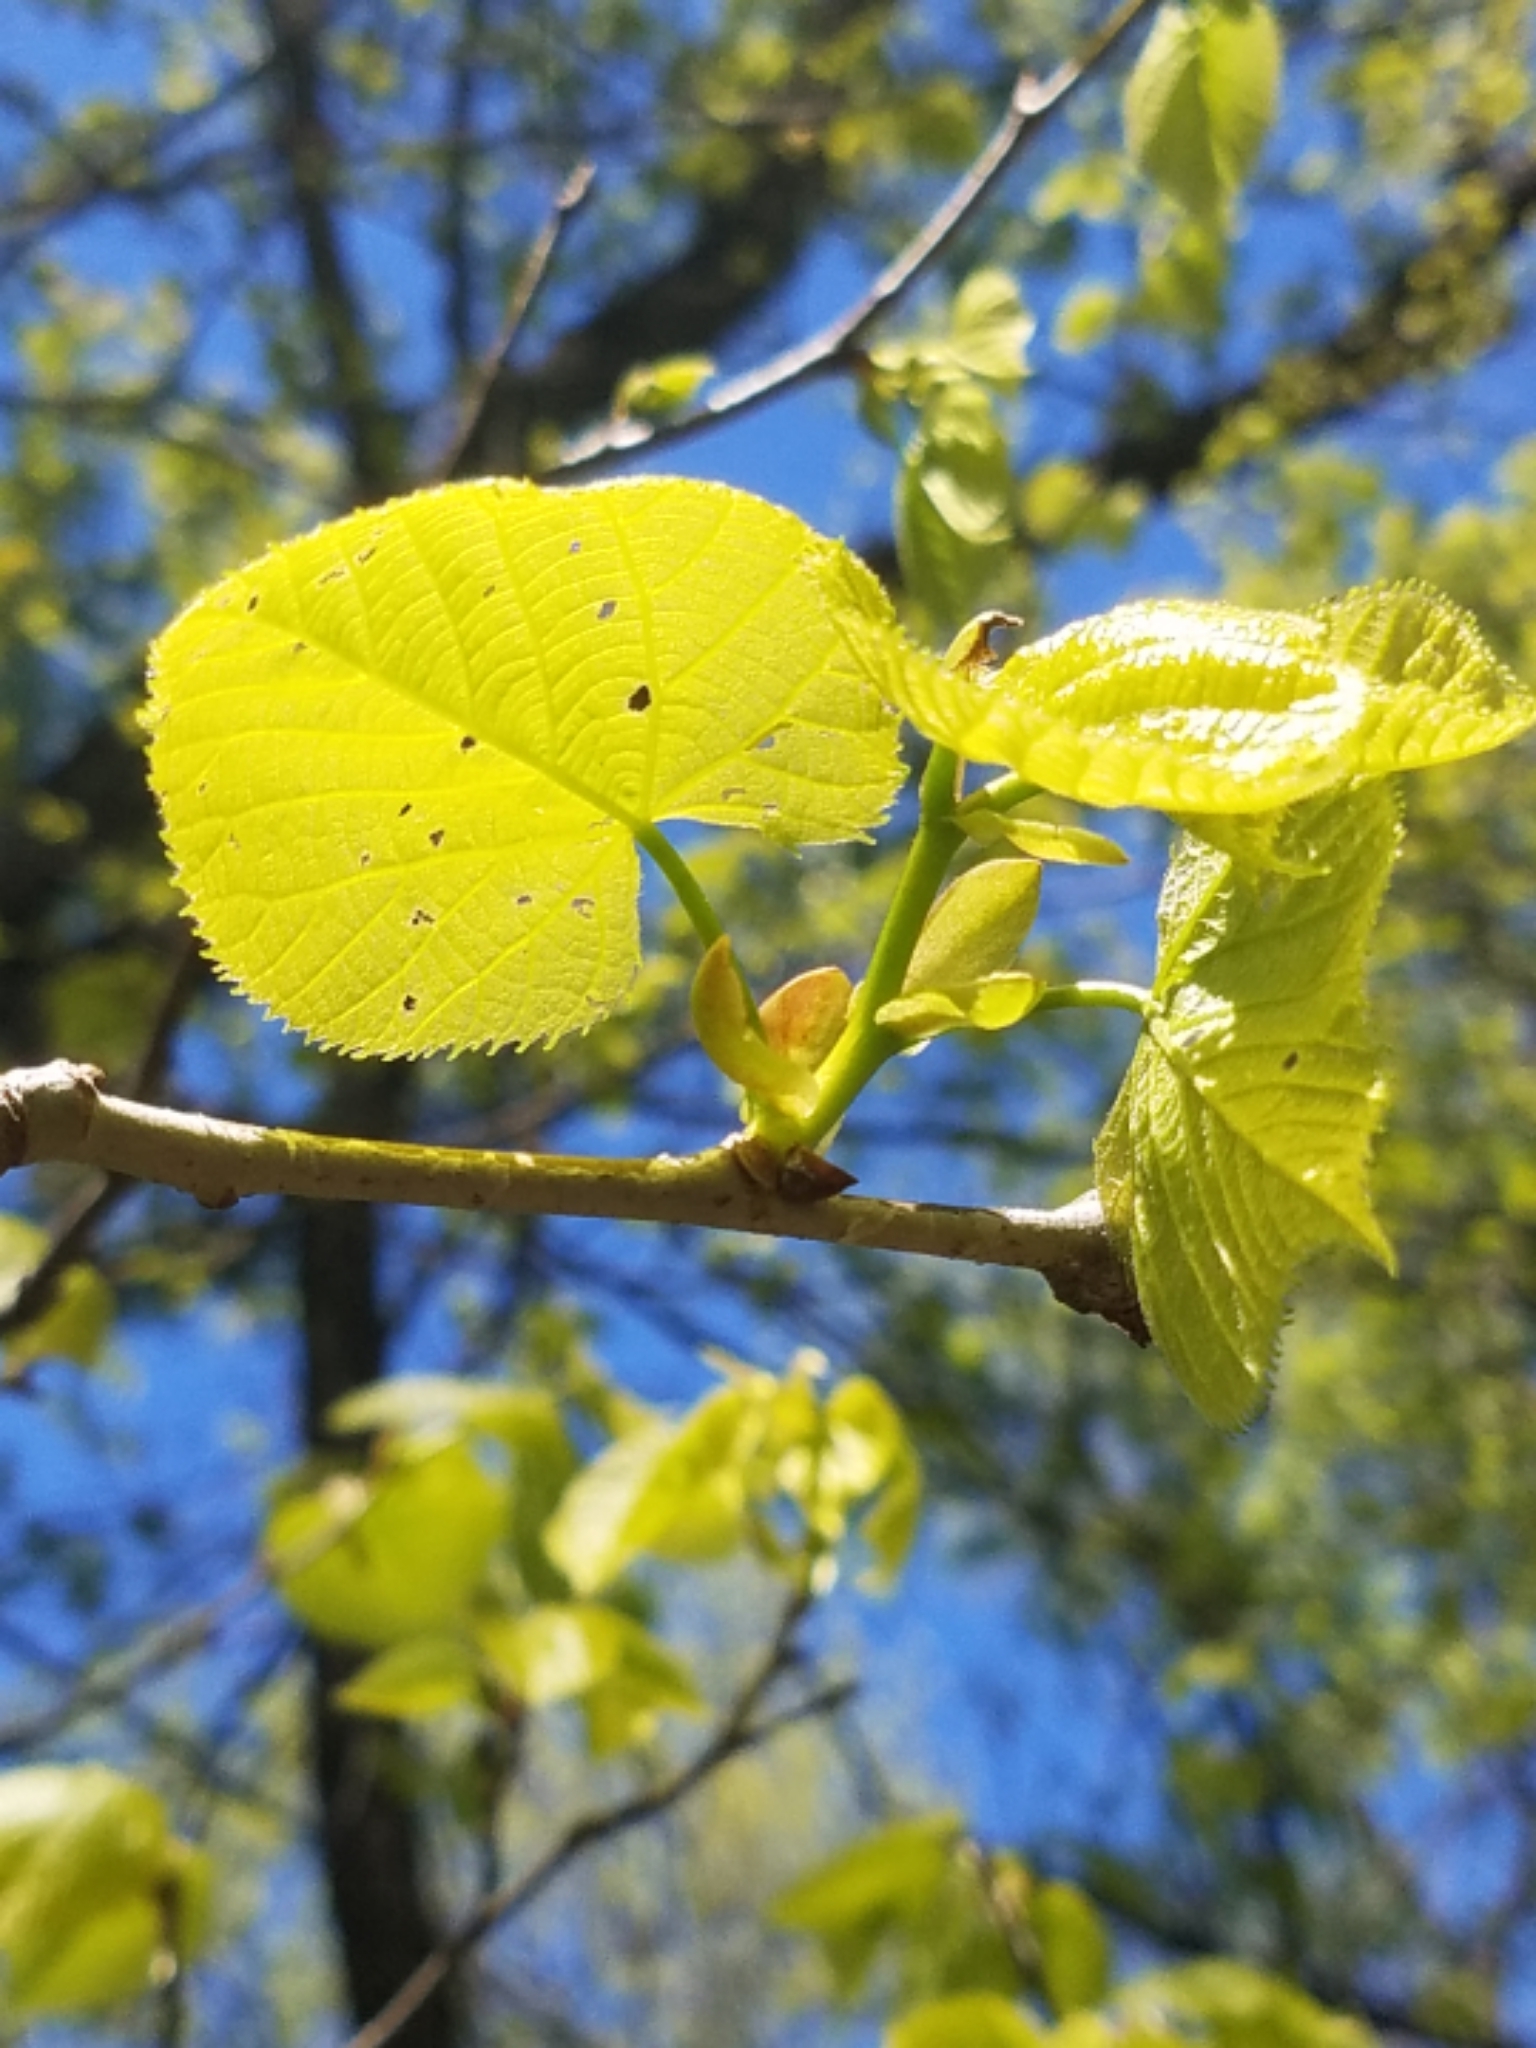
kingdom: Plantae
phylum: Tracheophyta
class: Magnoliopsida
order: Malvales
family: Malvaceae
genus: Tilia
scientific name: Tilia americana
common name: Basswood
